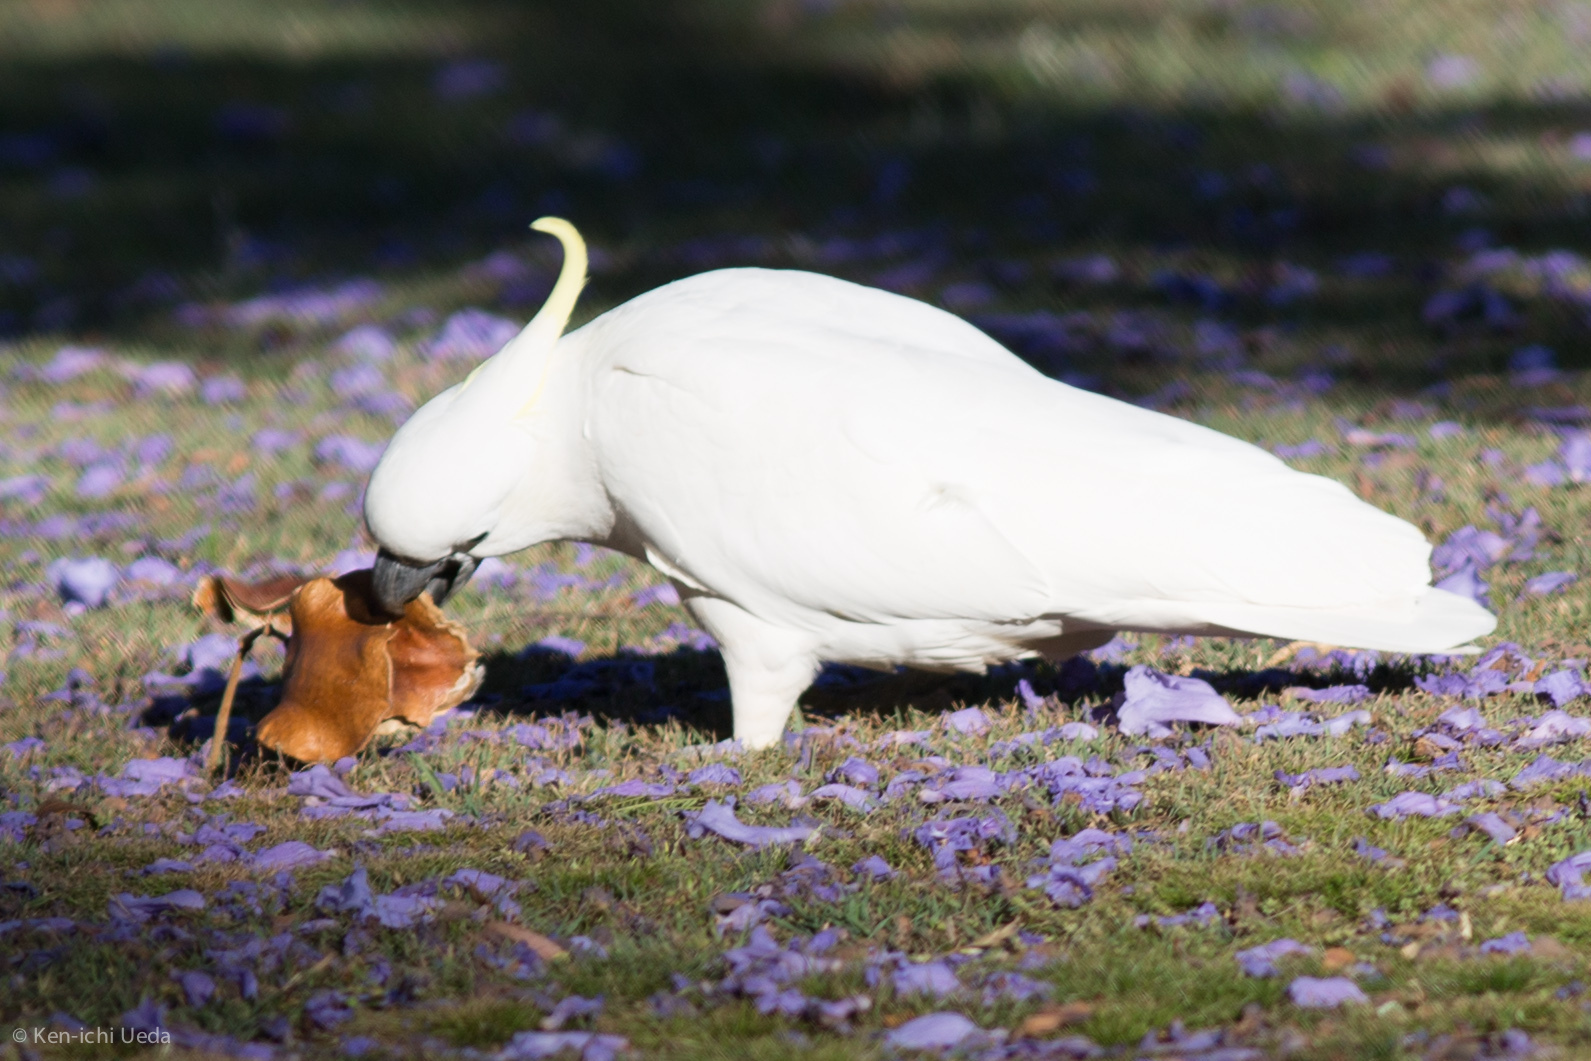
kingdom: Animalia
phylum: Chordata
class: Aves
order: Psittaciformes
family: Psittacidae
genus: Cacatua
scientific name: Cacatua galerita
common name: Sulphur-crested cockatoo
